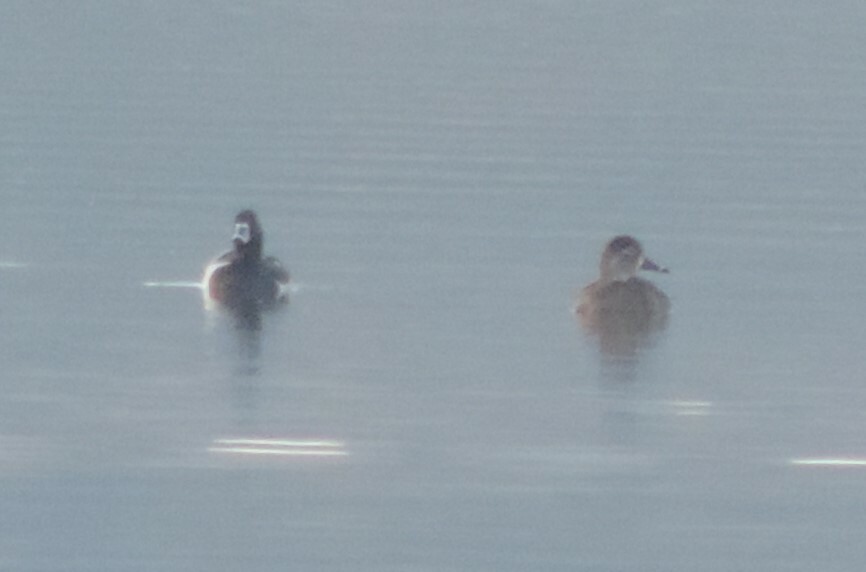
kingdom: Animalia
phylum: Chordata
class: Aves
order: Anseriformes
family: Anatidae
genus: Aythya
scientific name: Aythya collaris
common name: Ring-necked duck
